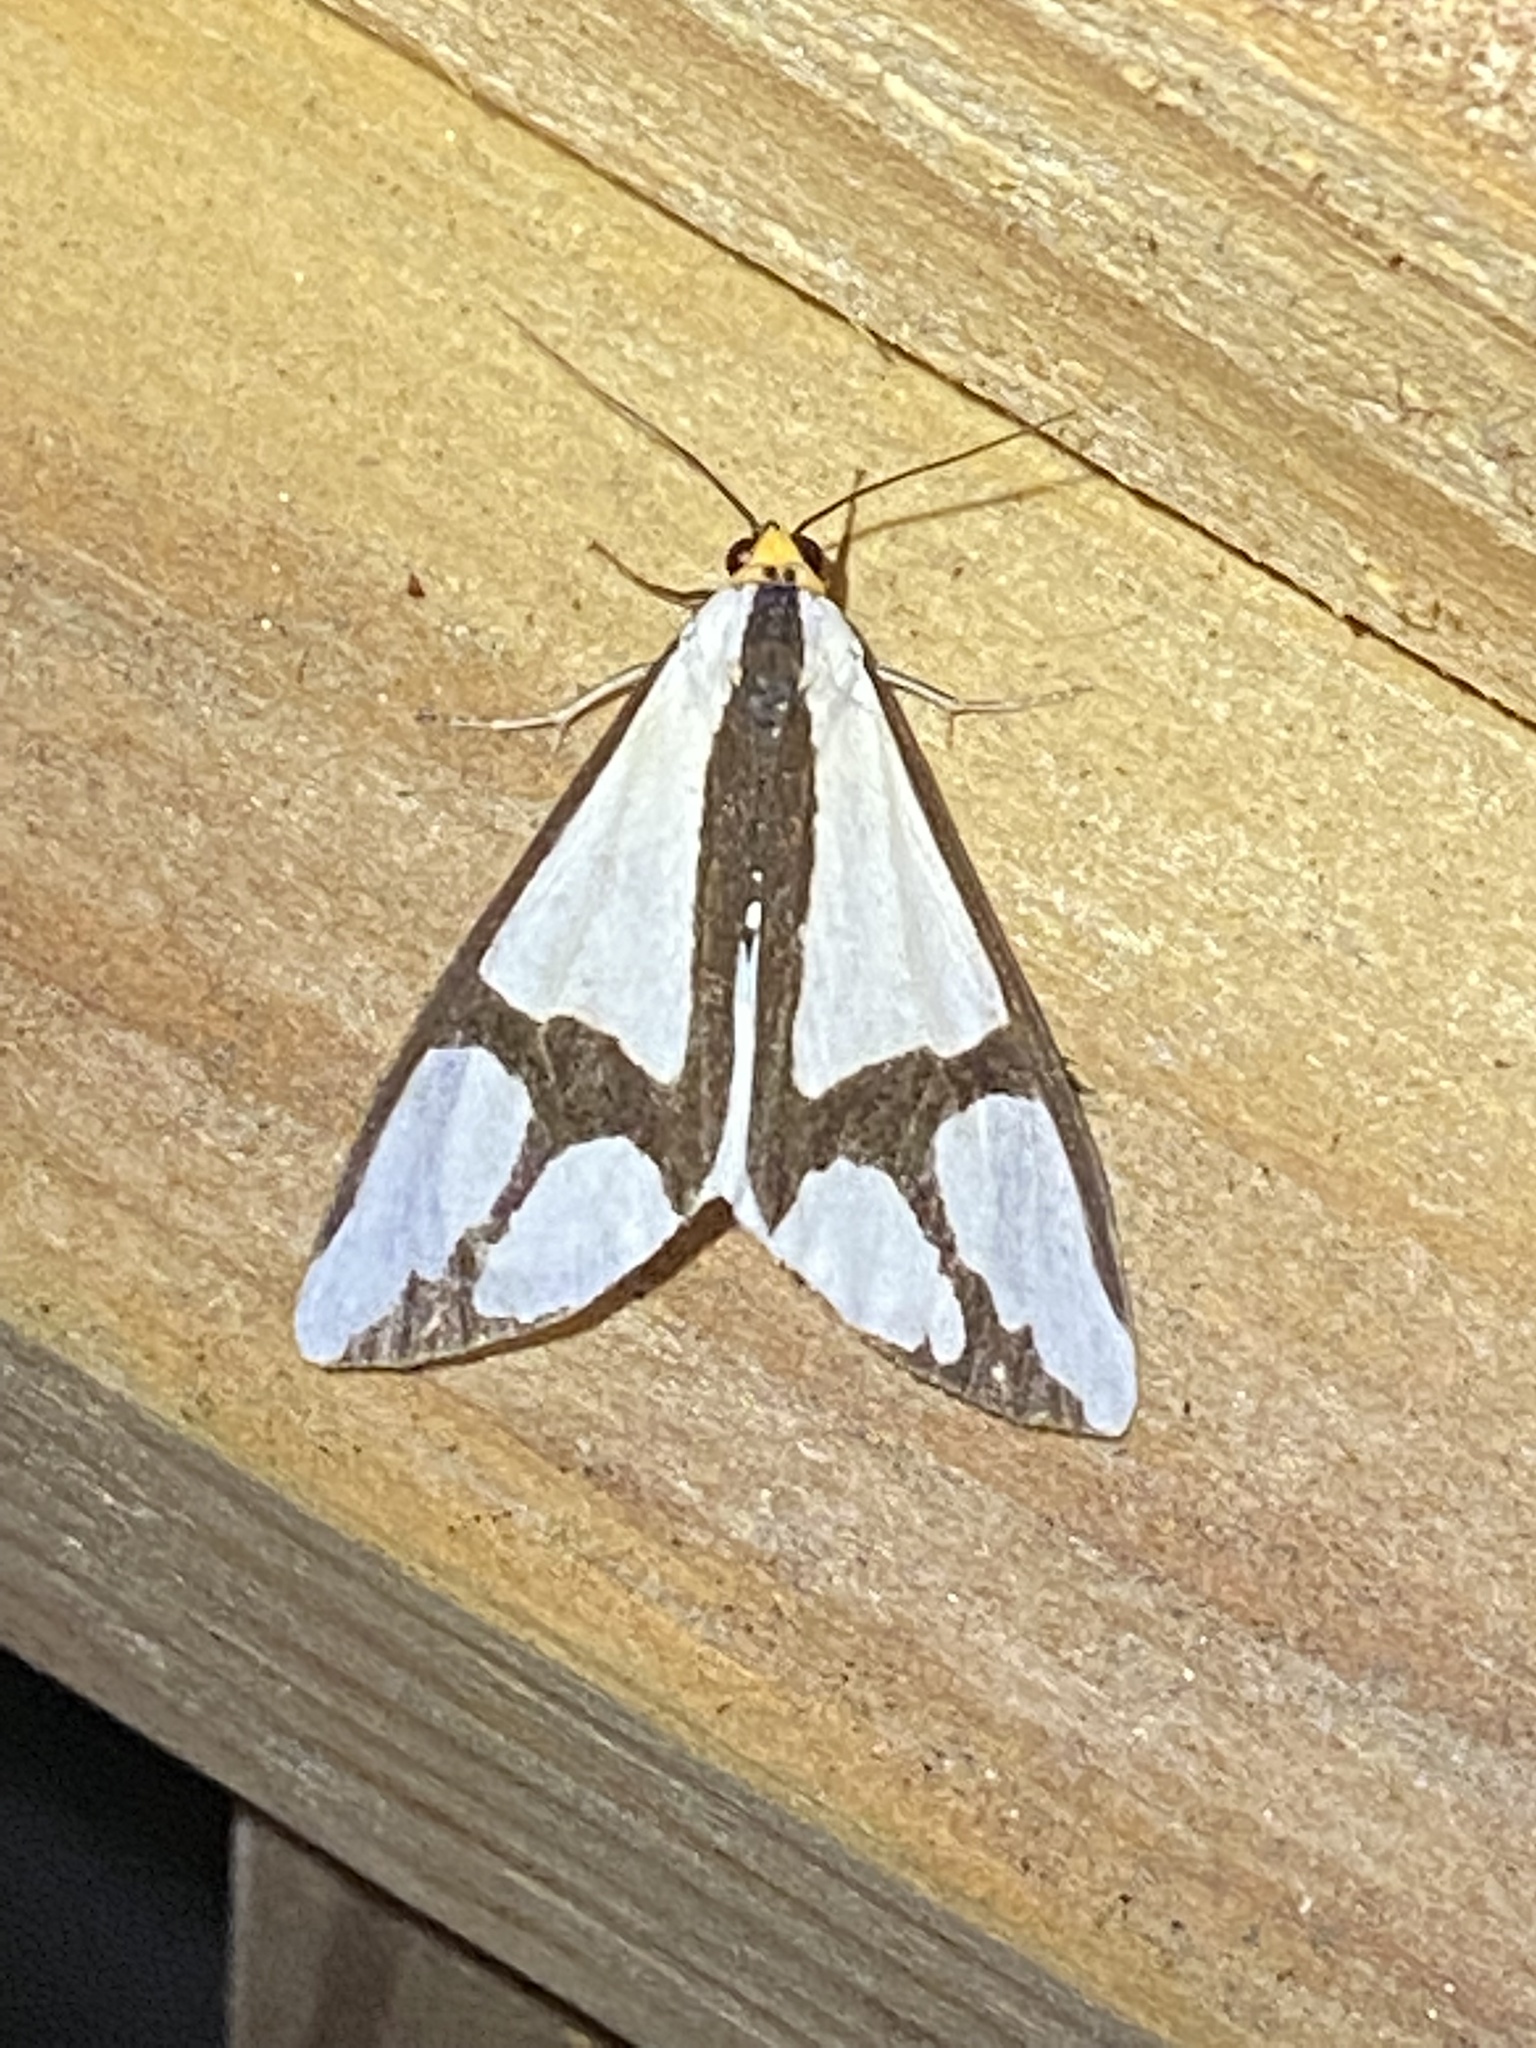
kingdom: Animalia
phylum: Arthropoda
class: Insecta
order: Lepidoptera
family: Erebidae
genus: Haploa
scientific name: Haploa contigua
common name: Neighbor moth
